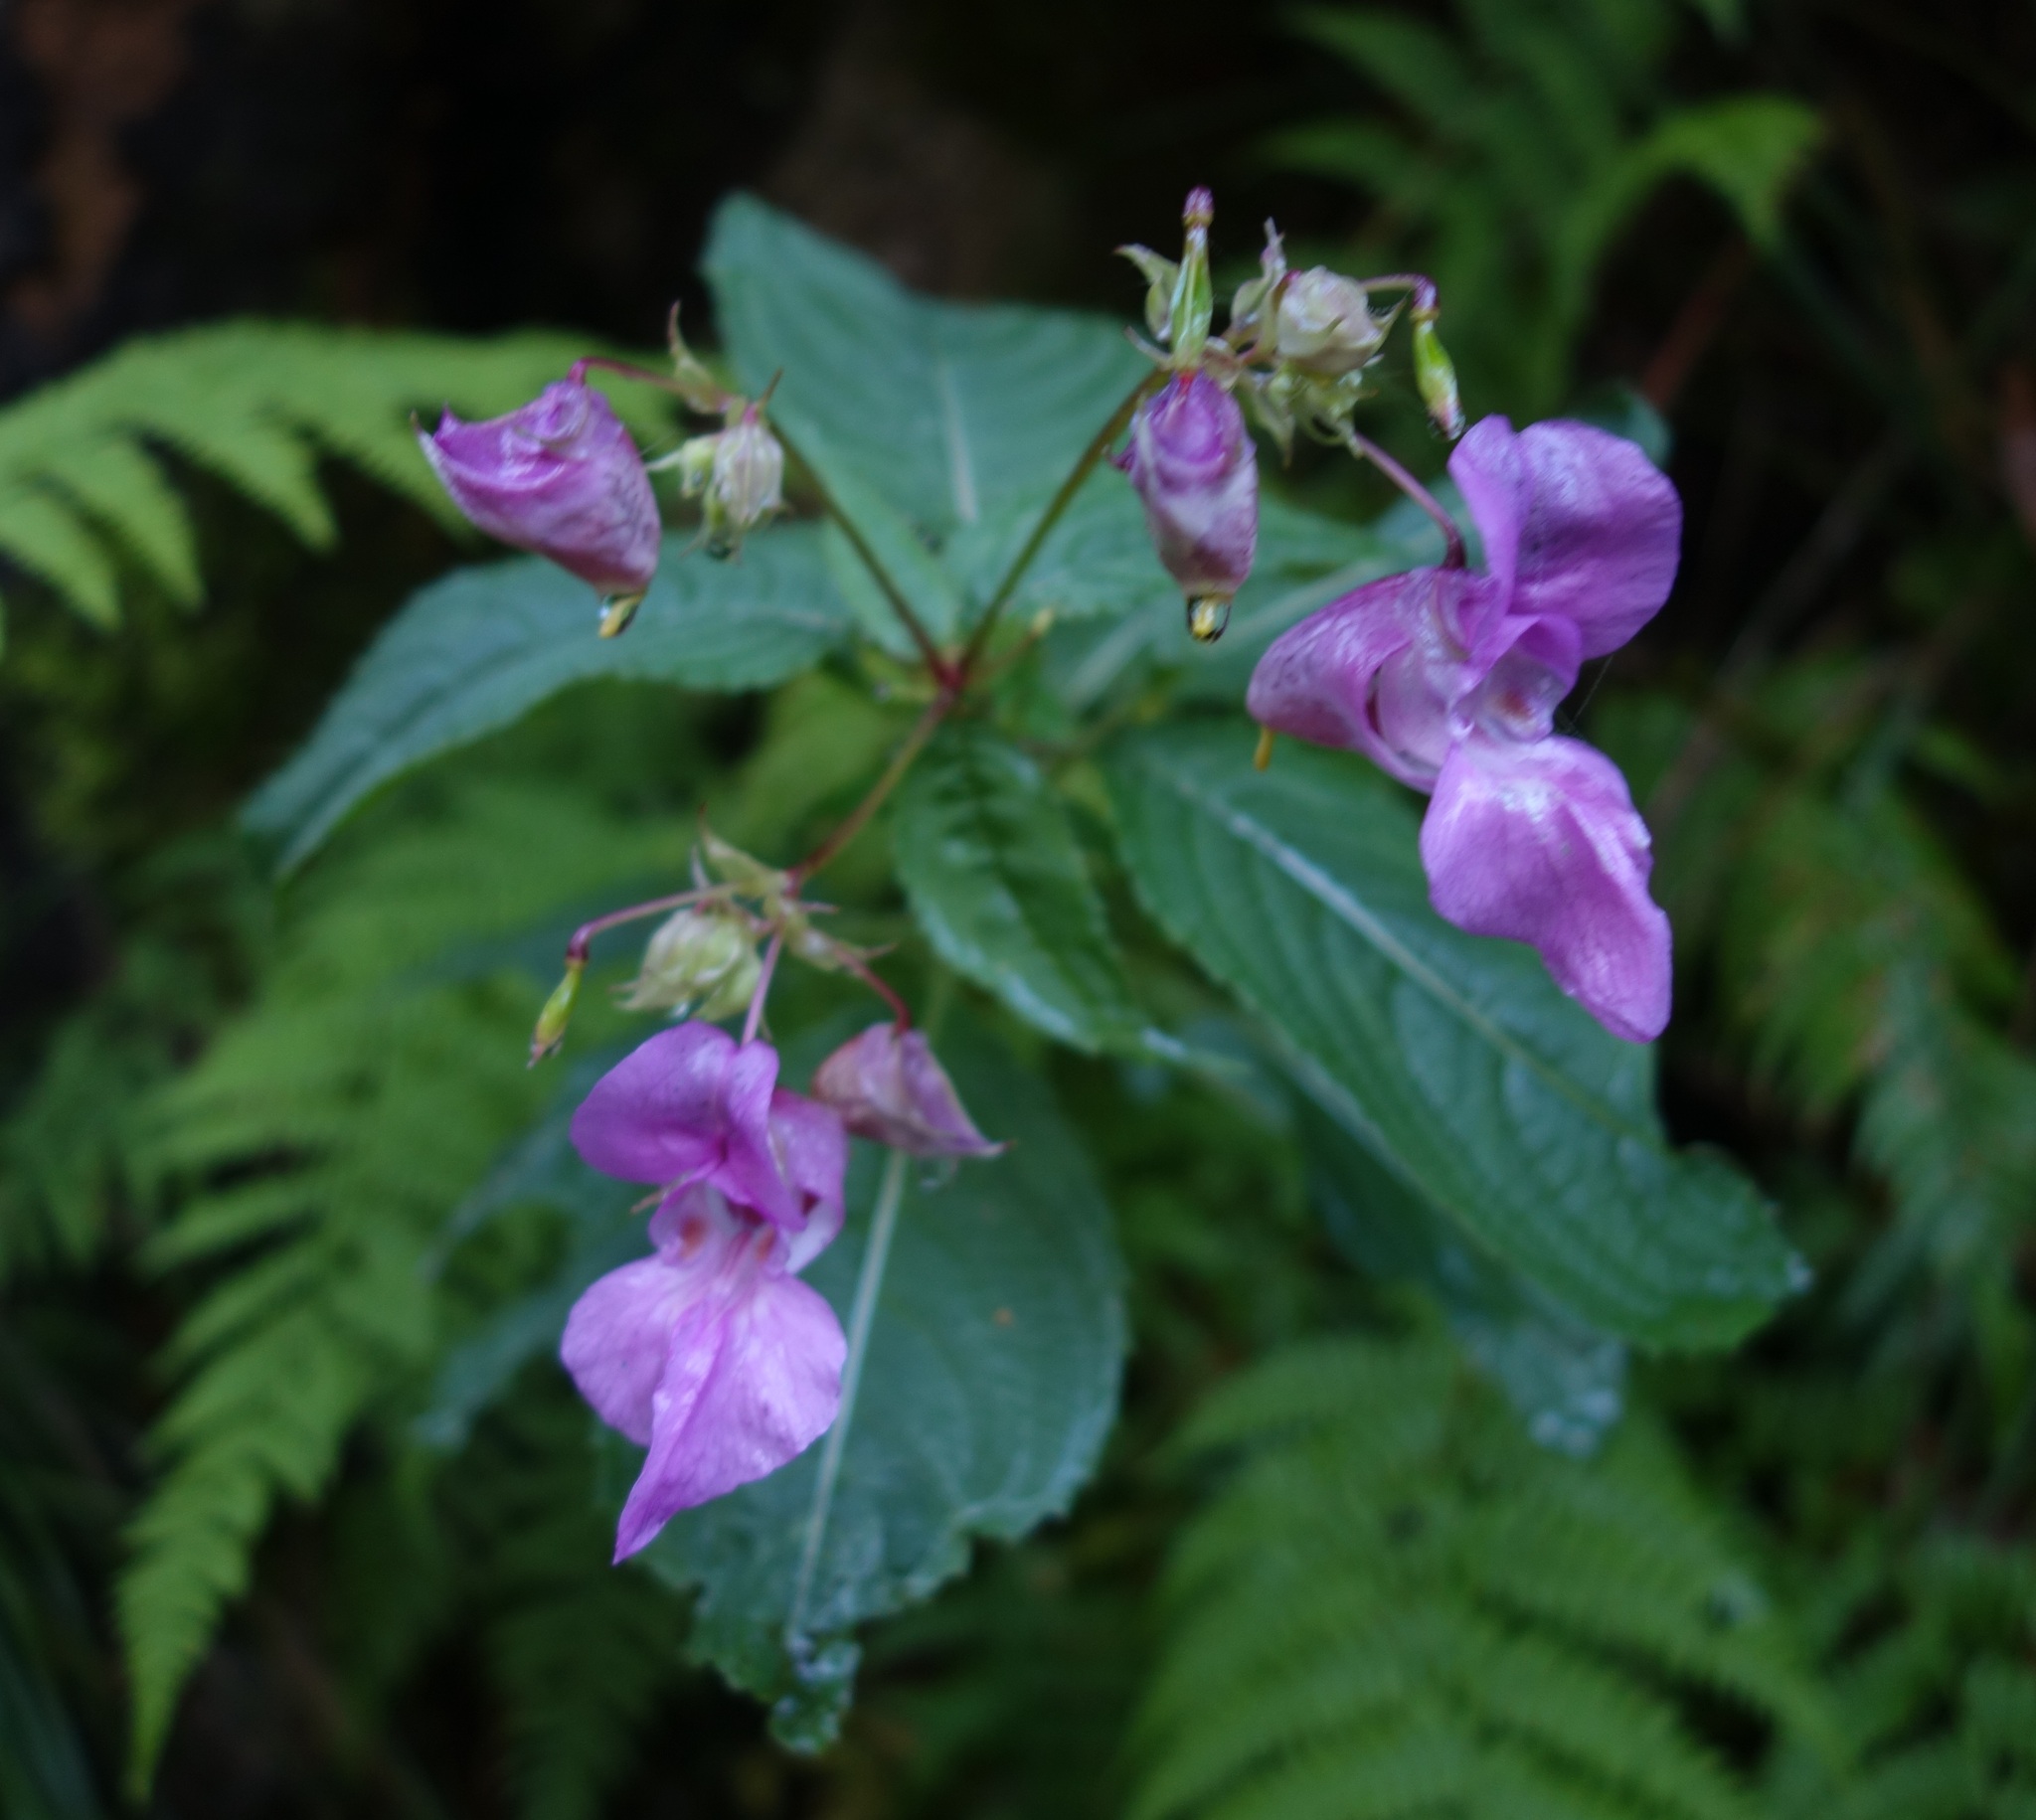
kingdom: Plantae
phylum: Tracheophyta
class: Magnoliopsida
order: Ericales
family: Balsaminaceae
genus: Impatiens
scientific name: Impatiens glandulifera
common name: Himalayan balsam
